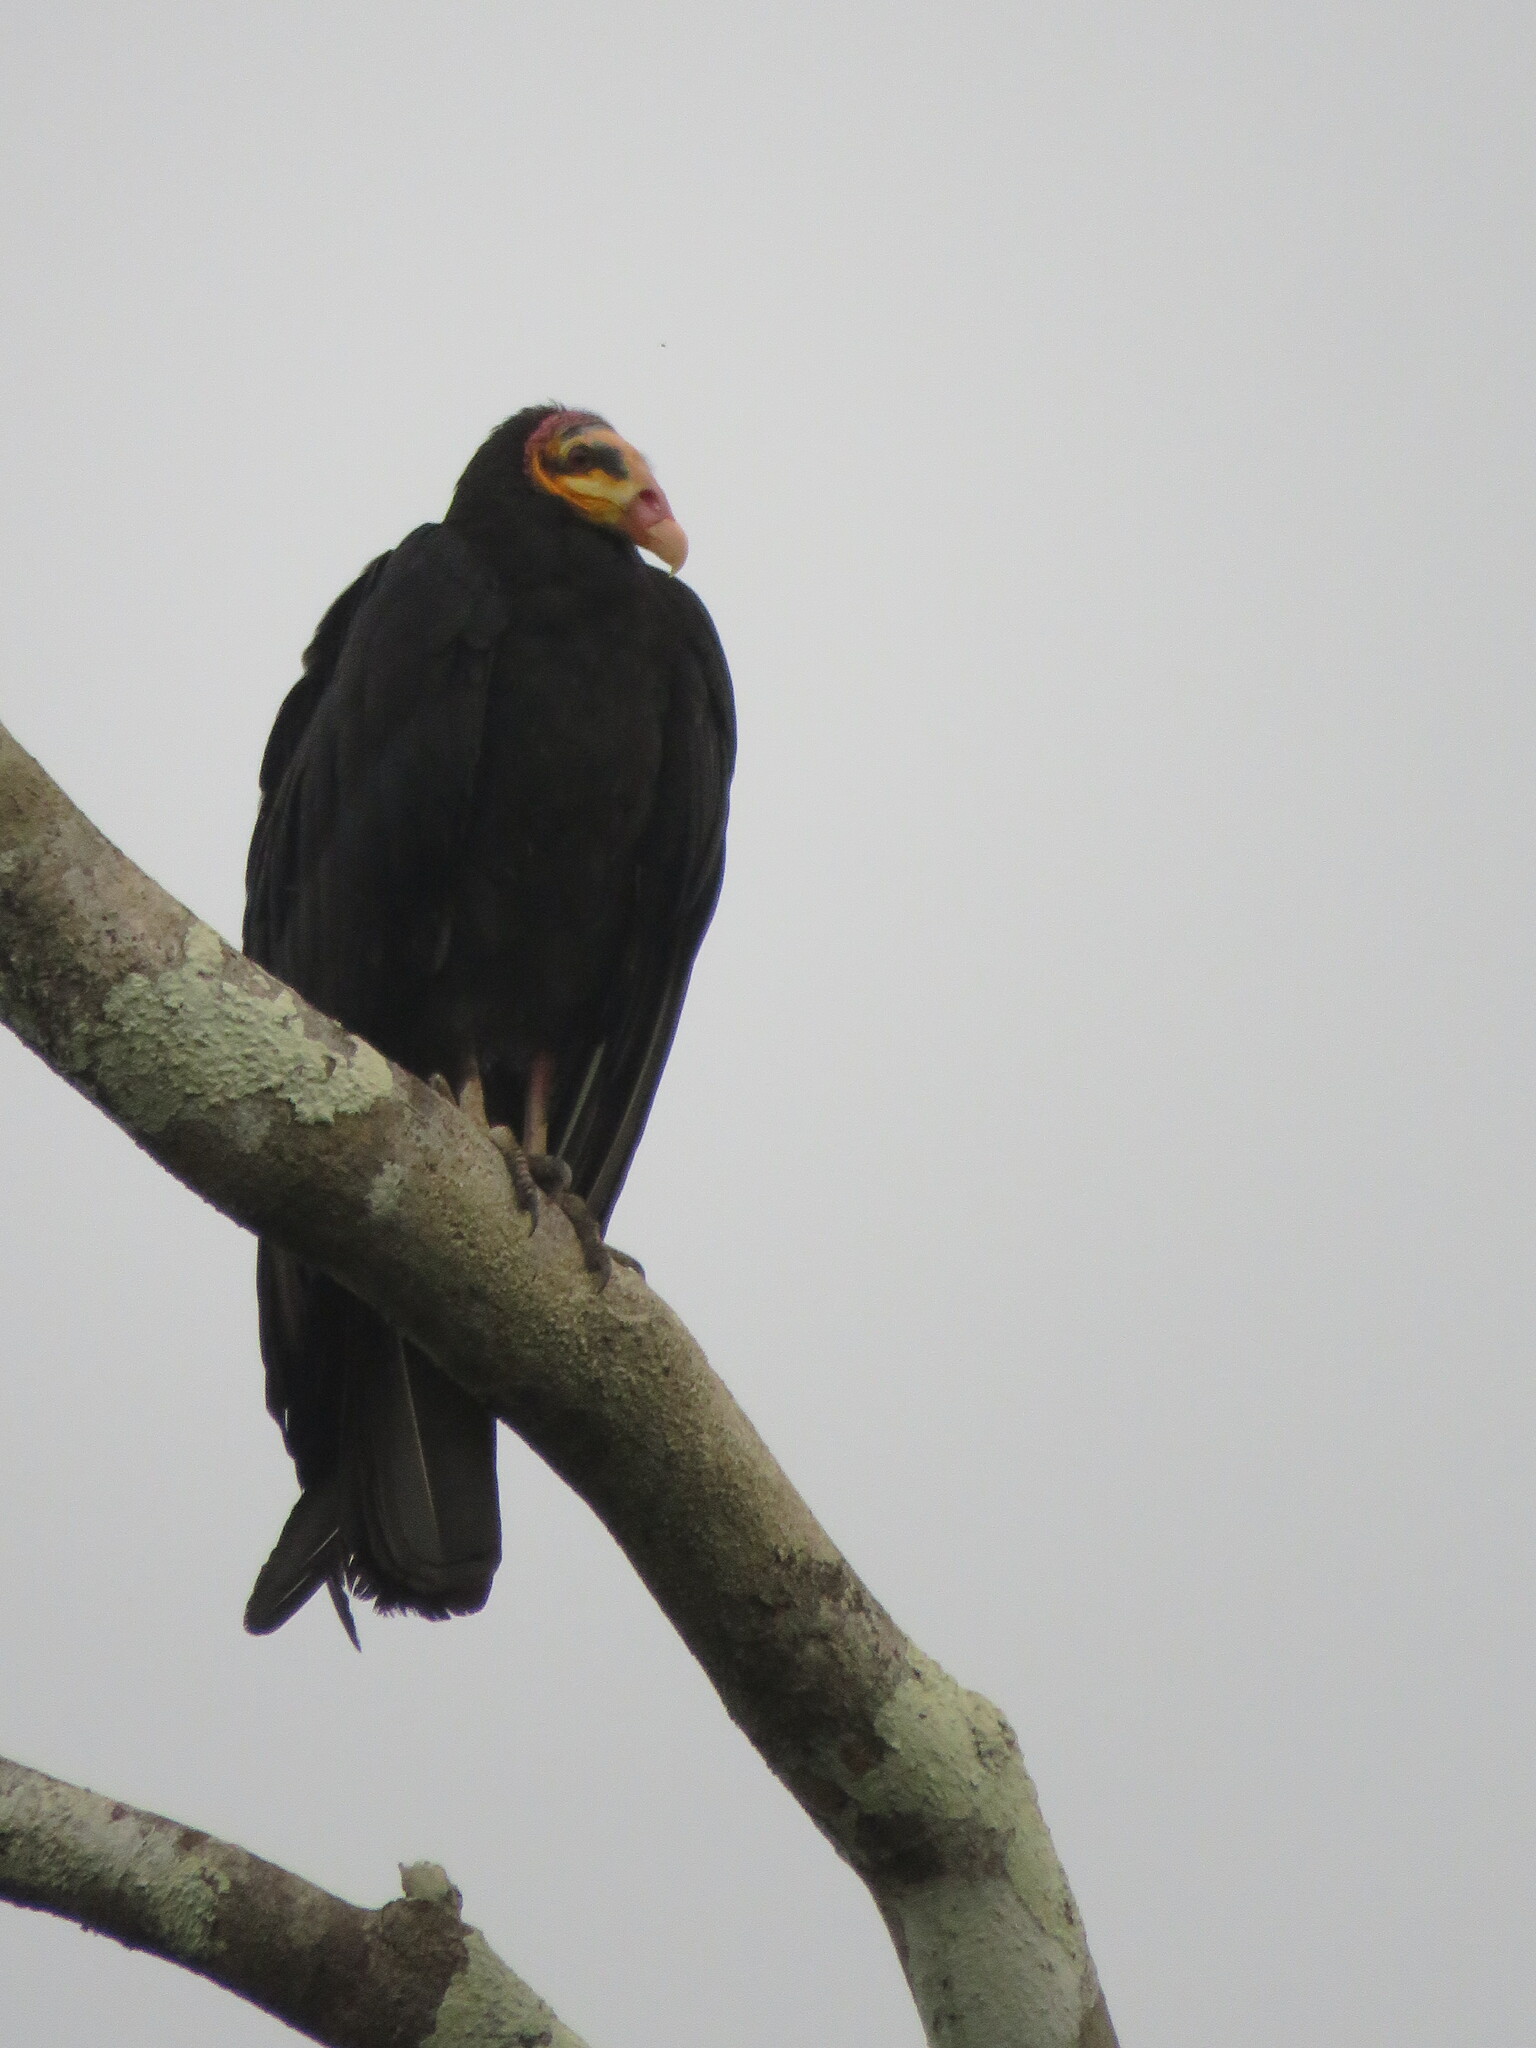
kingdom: Animalia
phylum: Chordata
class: Aves
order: Accipitriformes
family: Cathartidae
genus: Cathartes
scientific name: Cathartes melambrotus
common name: Greater yellow-headed vulture
